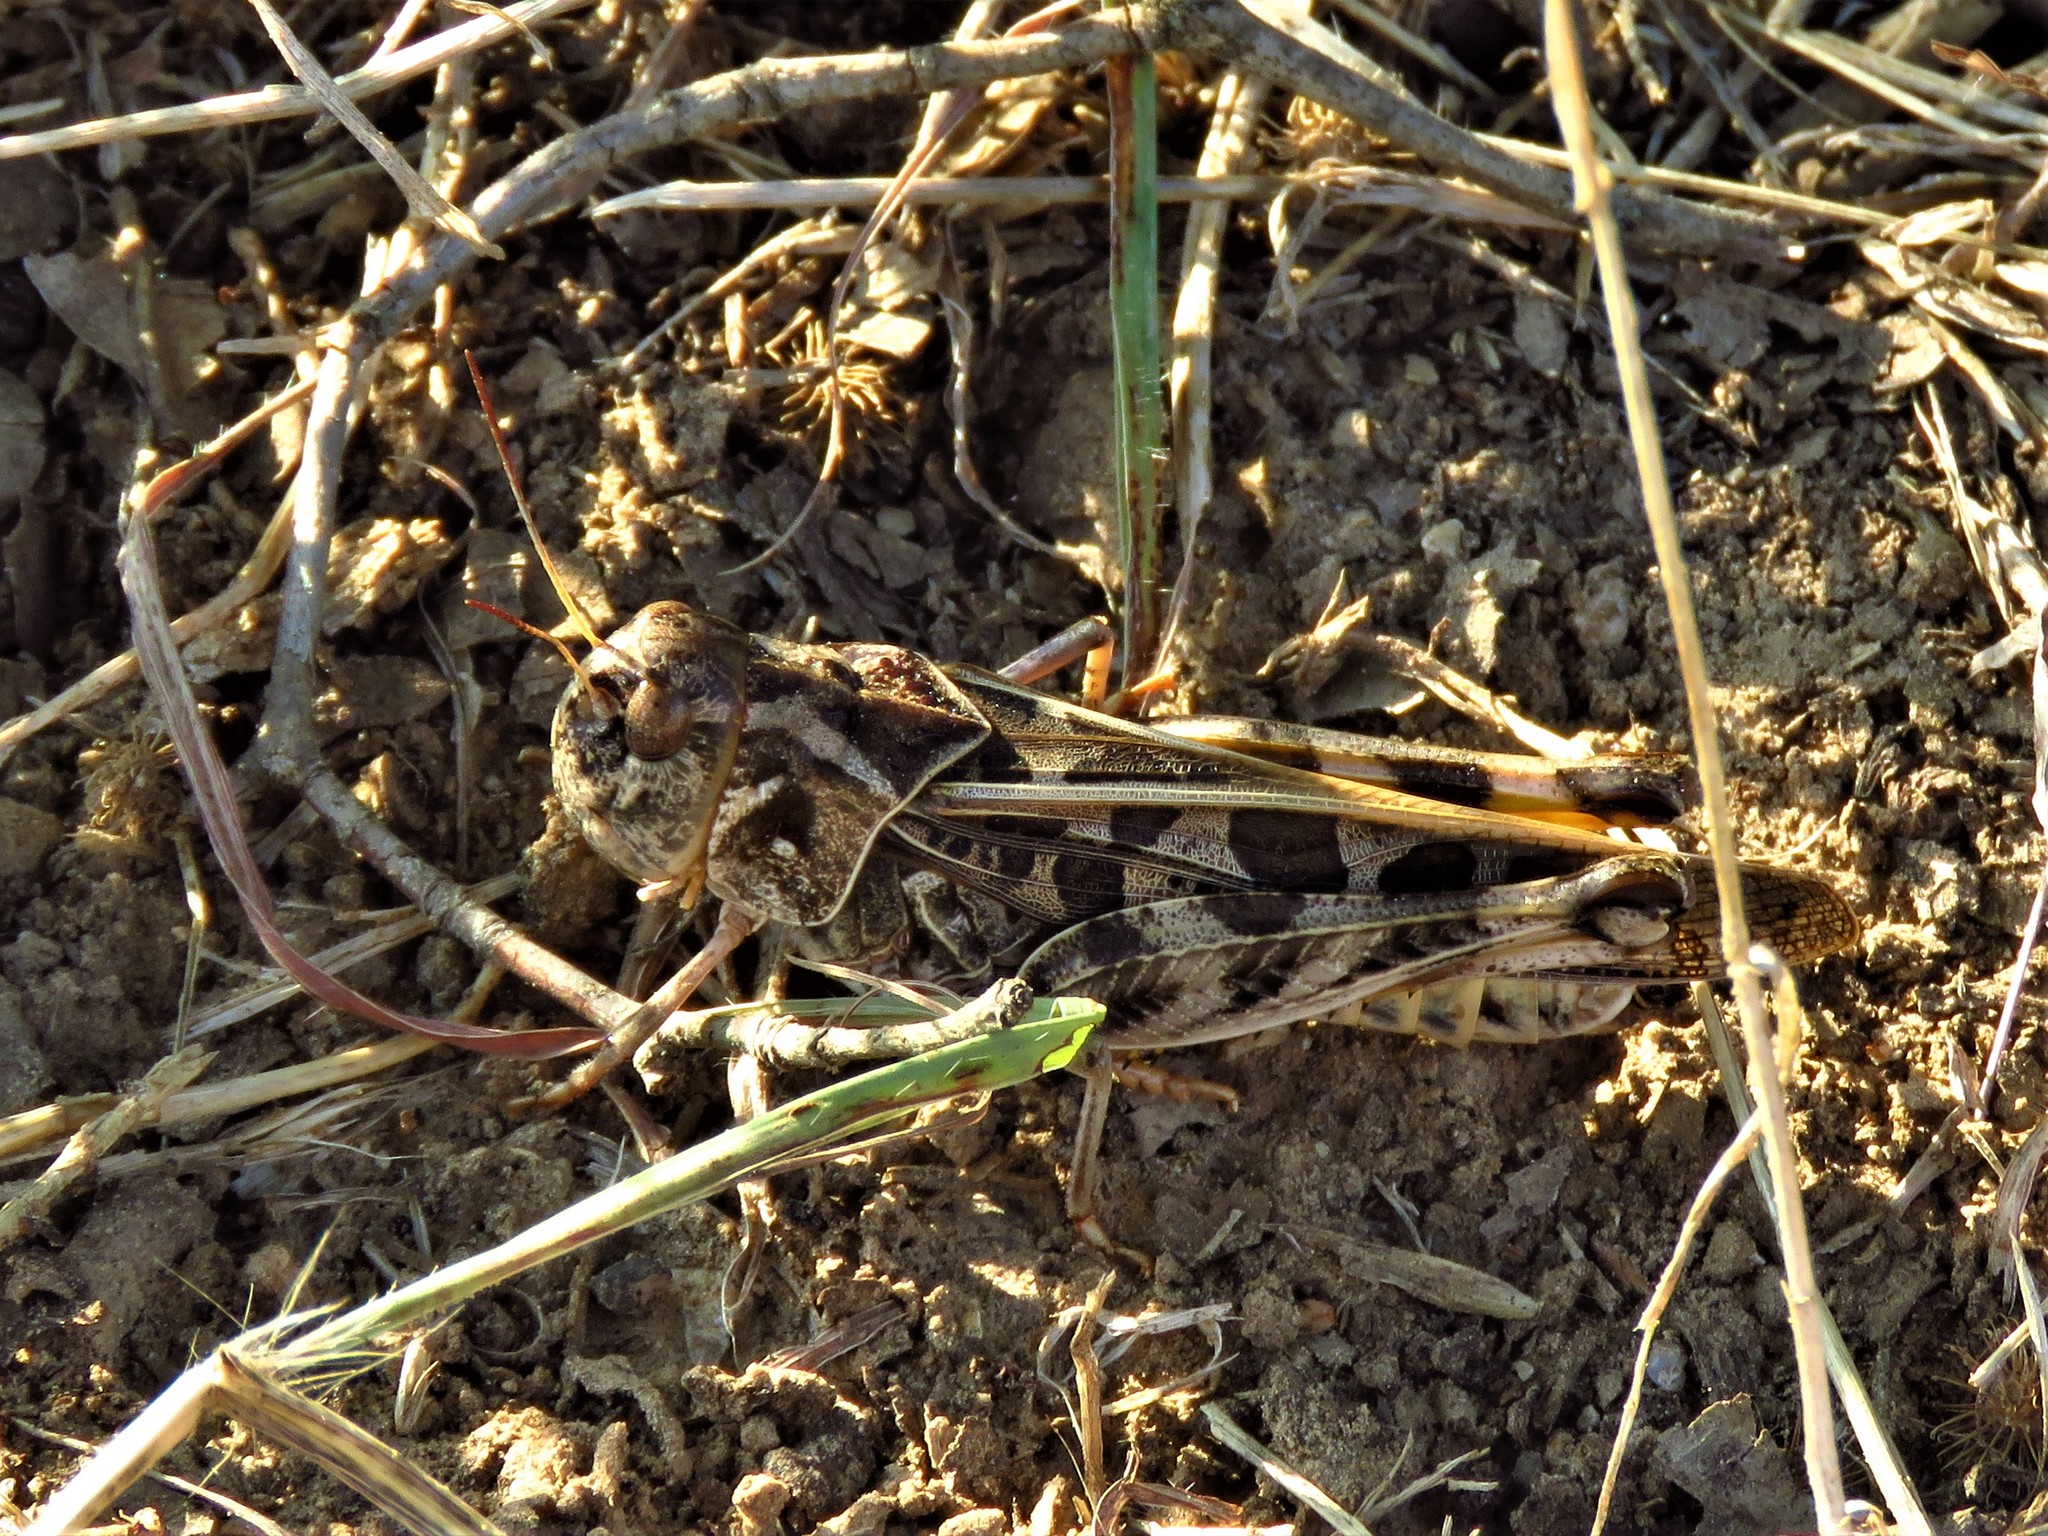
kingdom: Animalia
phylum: Arthropoda
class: Insecta
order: Orthoptera
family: Acrididae
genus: Hippiscus
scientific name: Hippiscus ocelote
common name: Wrinkled grasshopper
